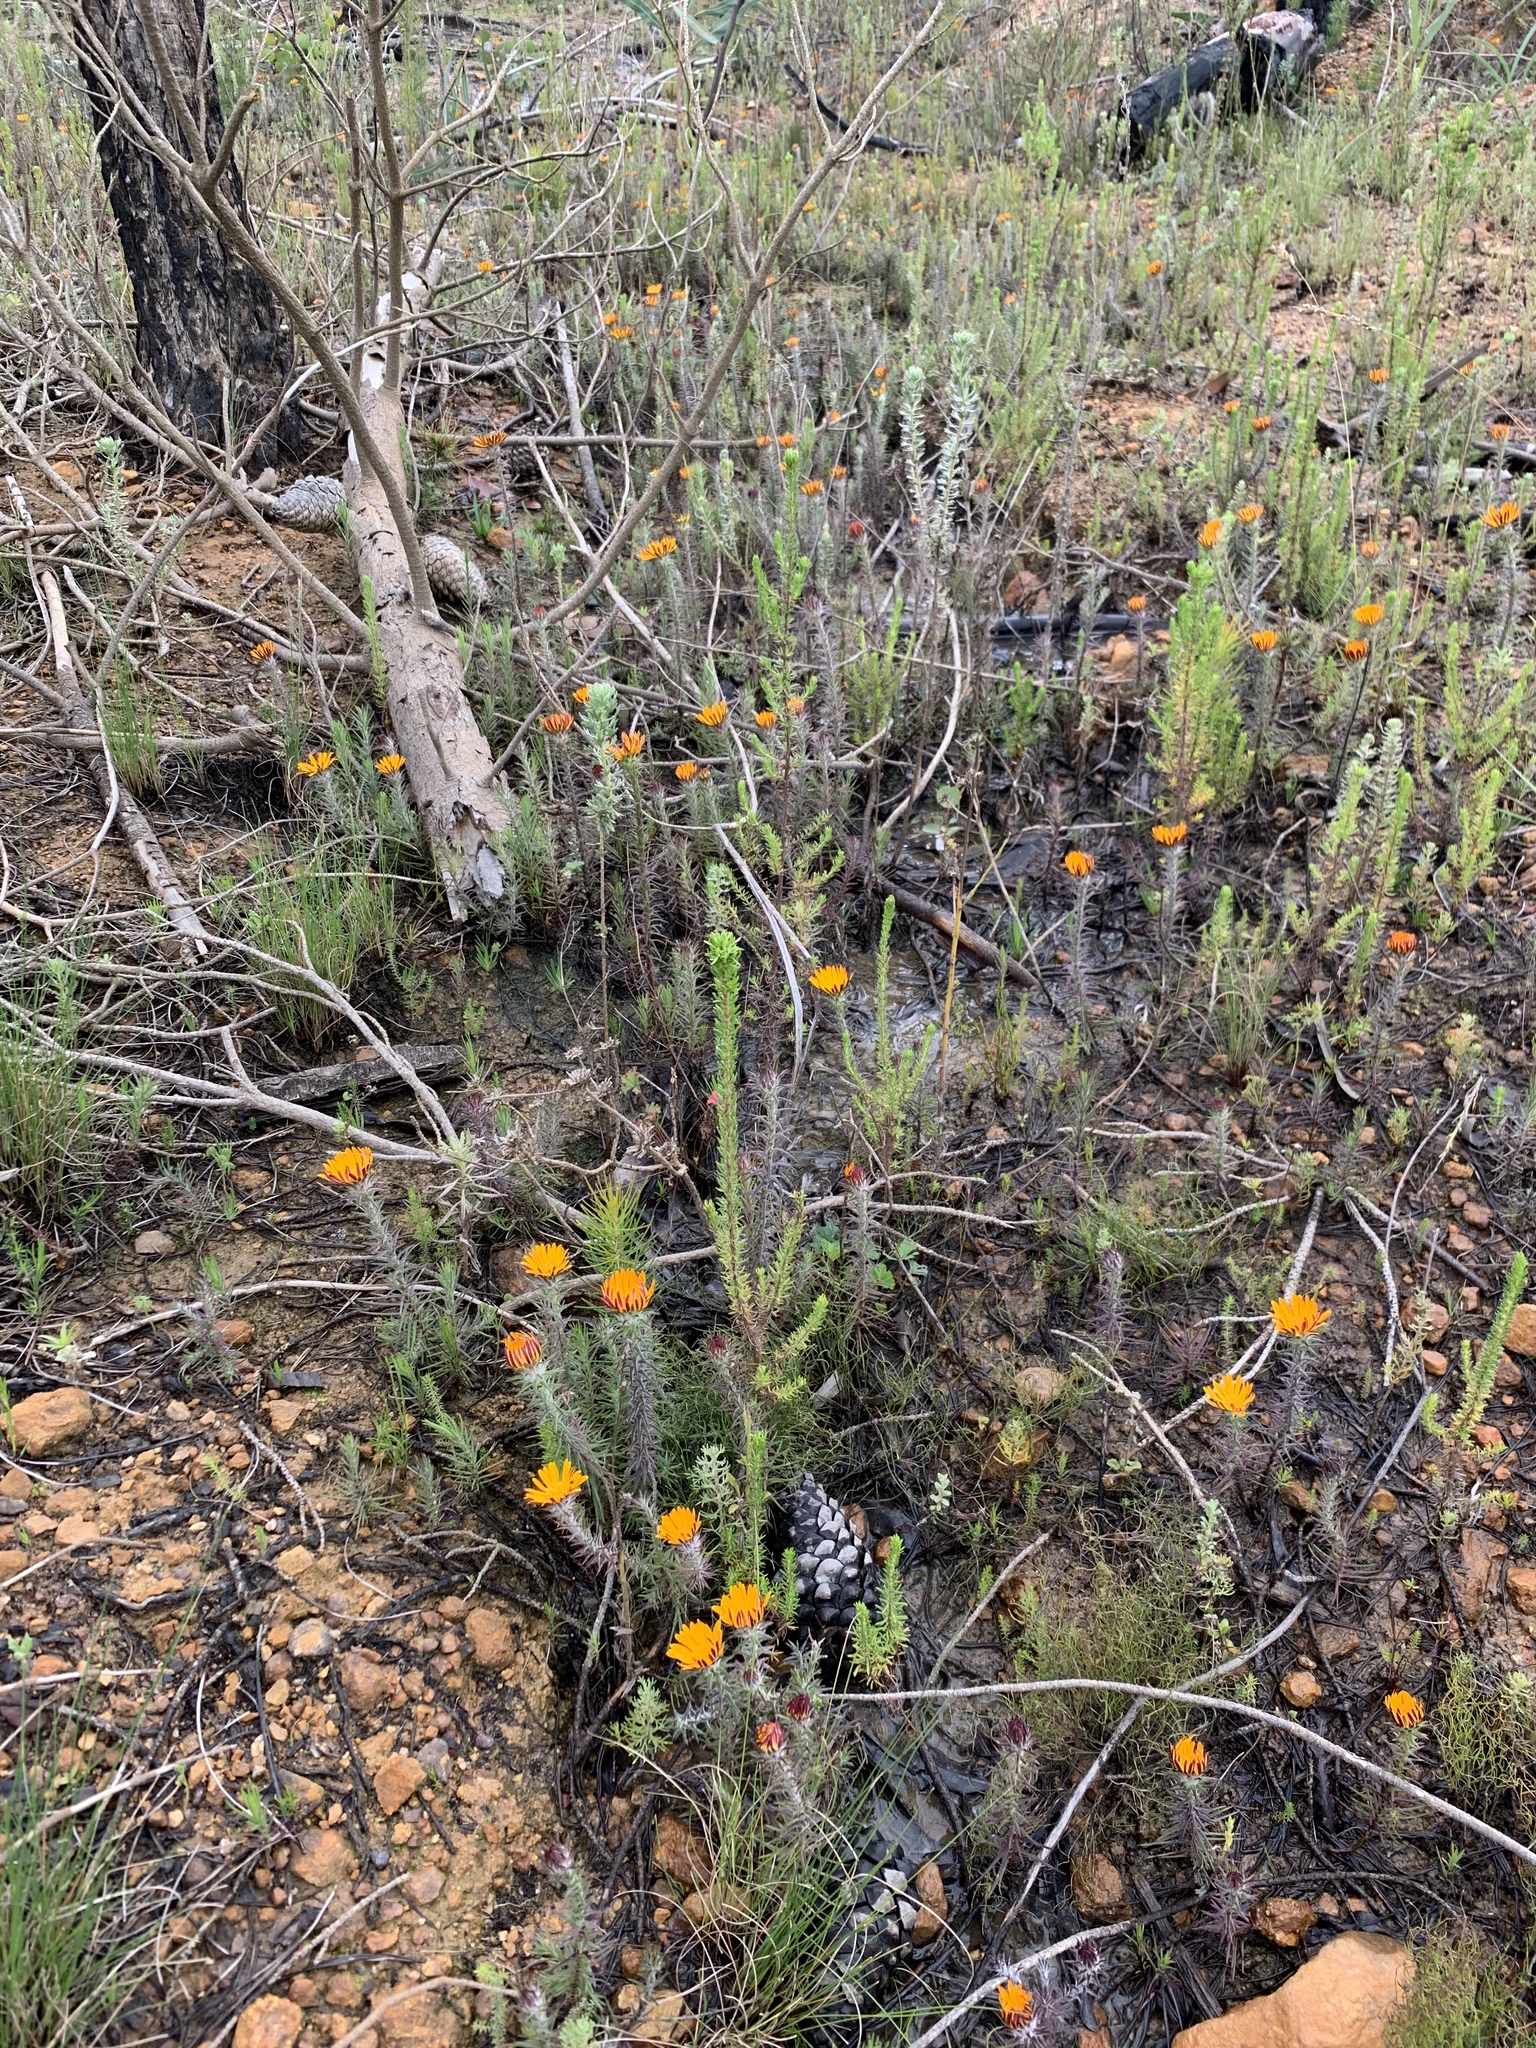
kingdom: Plantae
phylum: Tracheophyta
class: Magnoliopsida
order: Asterales
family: Asteraceae
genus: Oedera
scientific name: Oedera capensis
